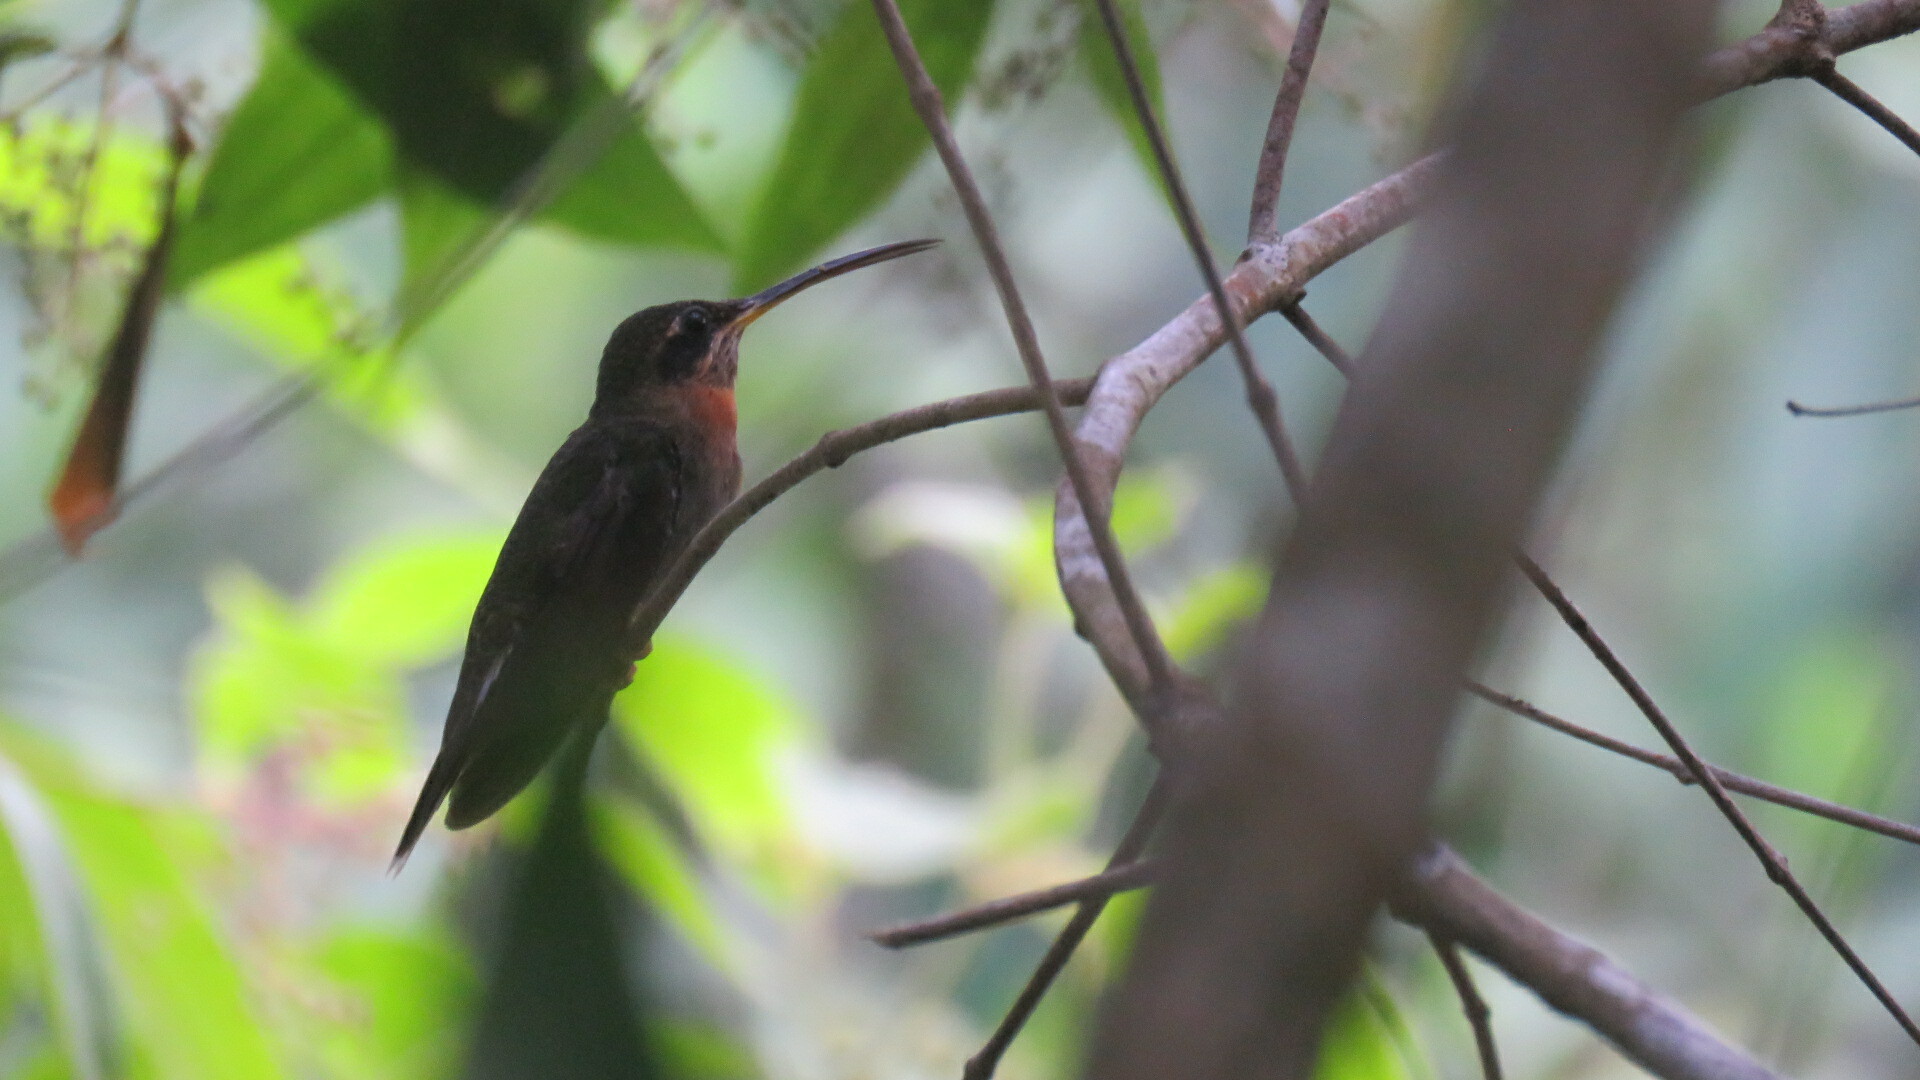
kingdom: Animalia
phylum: Chordata
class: Aves
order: Apodiformes
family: Trochilidae
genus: Threnetes
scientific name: Threnetes ruckeri
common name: Band-tailed barbthroat
